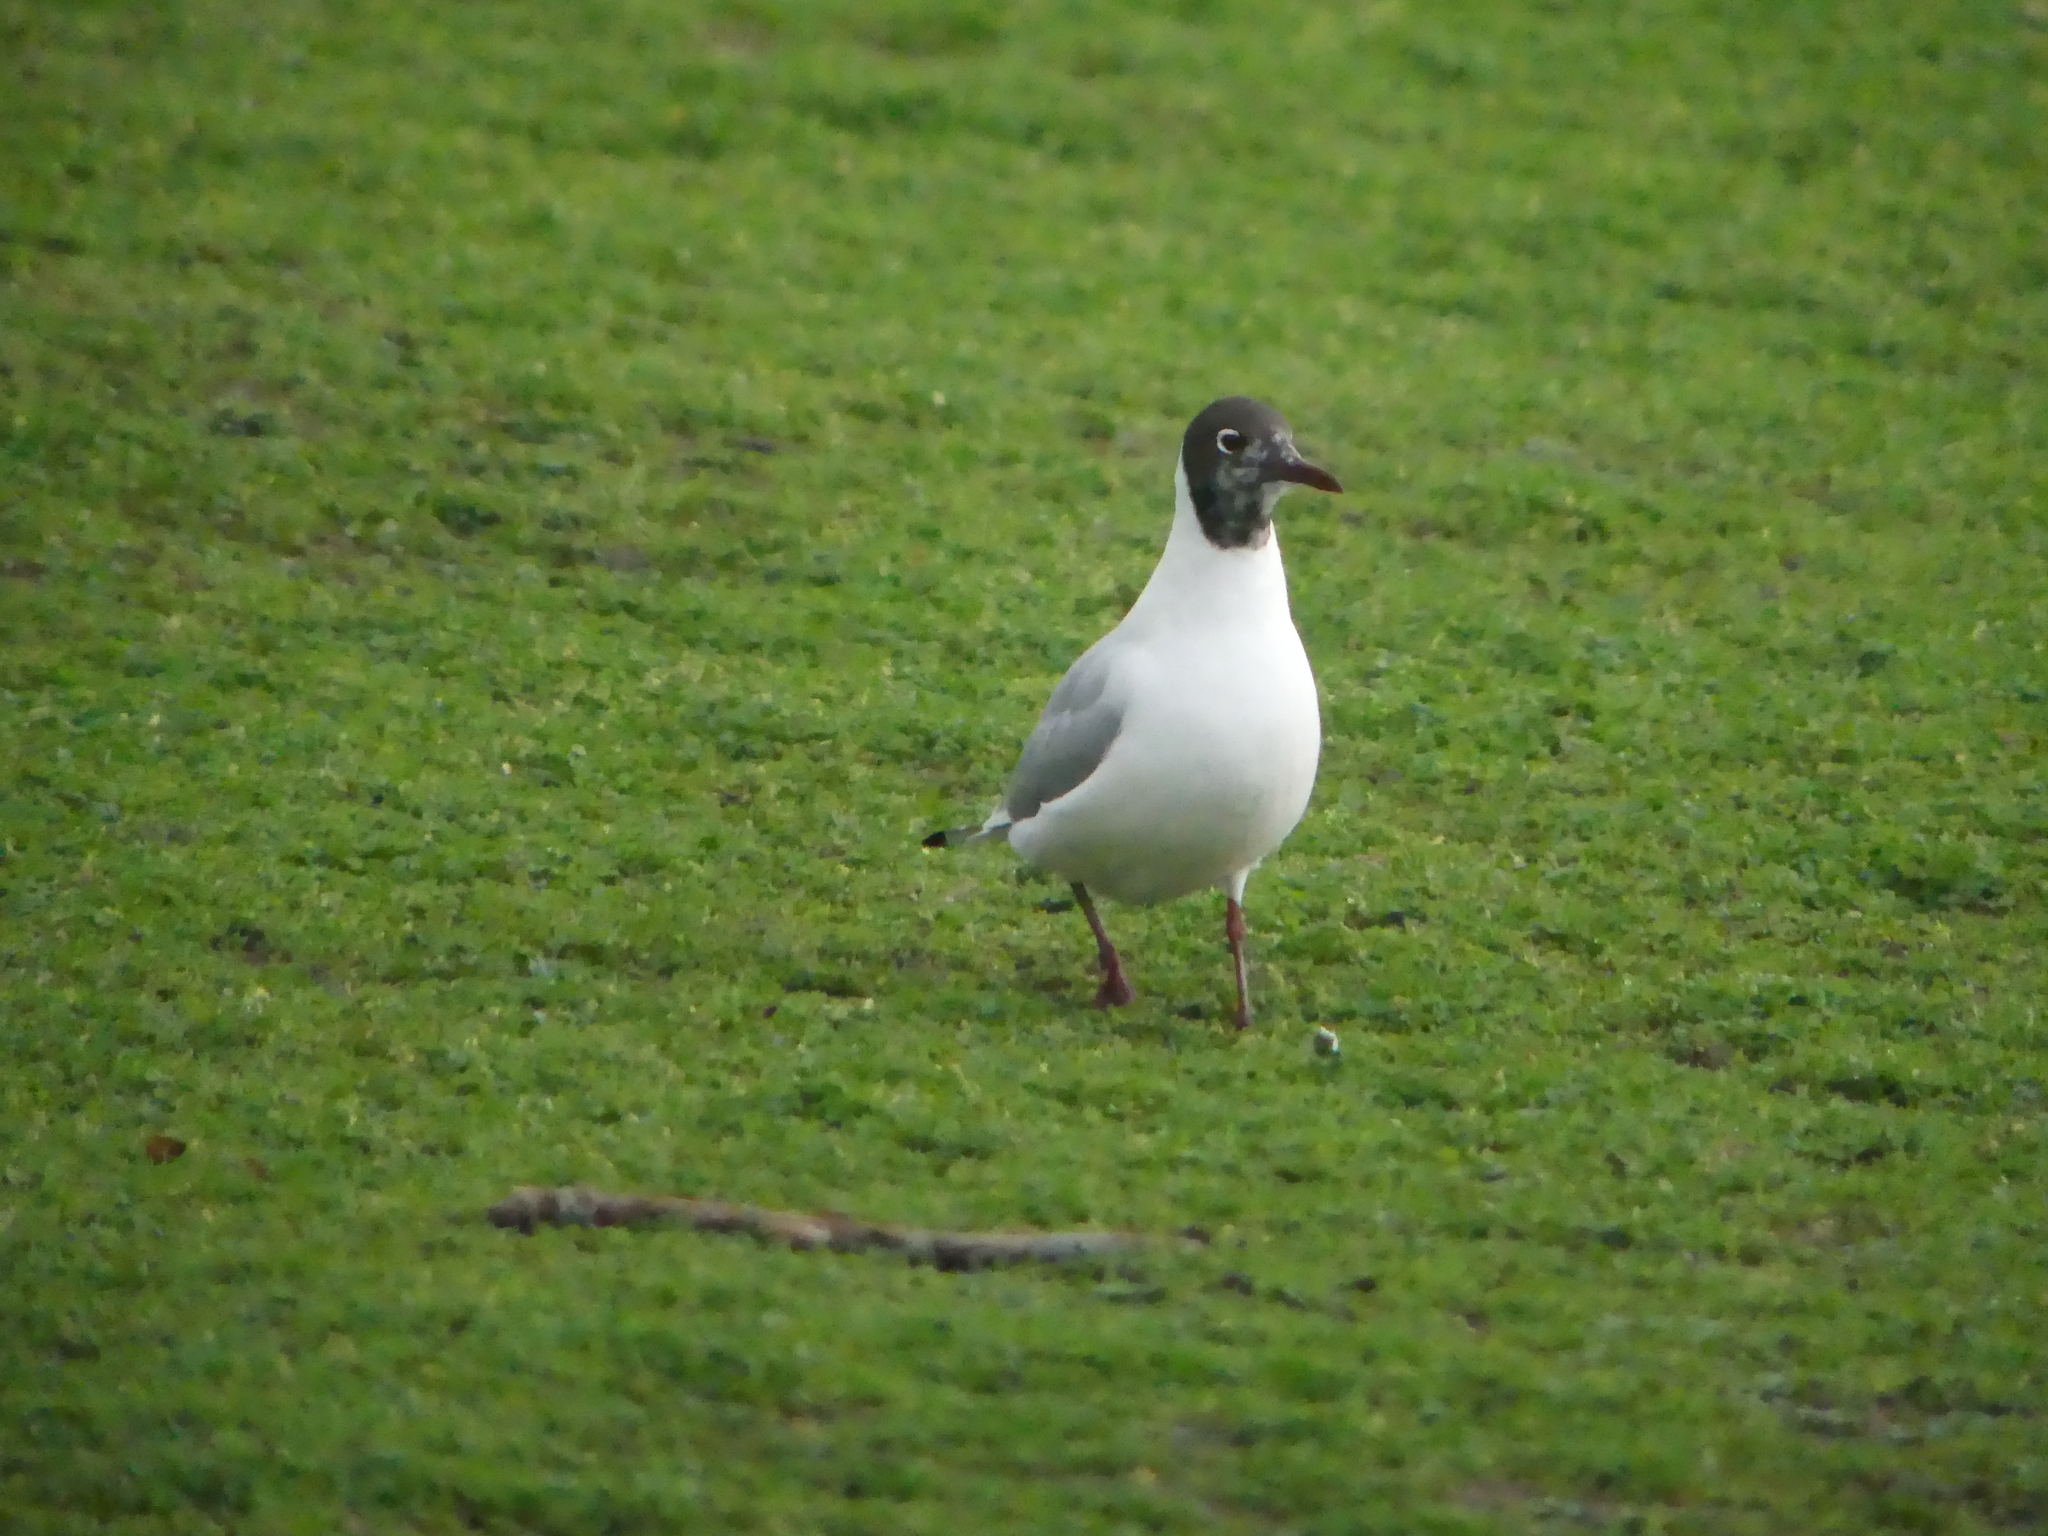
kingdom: Animalia
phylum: Chordata
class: Aves
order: Charadriiformes
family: Laridae
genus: Chroicocephalus
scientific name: Chroicocephalus ridibundus
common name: Black-headed gull
